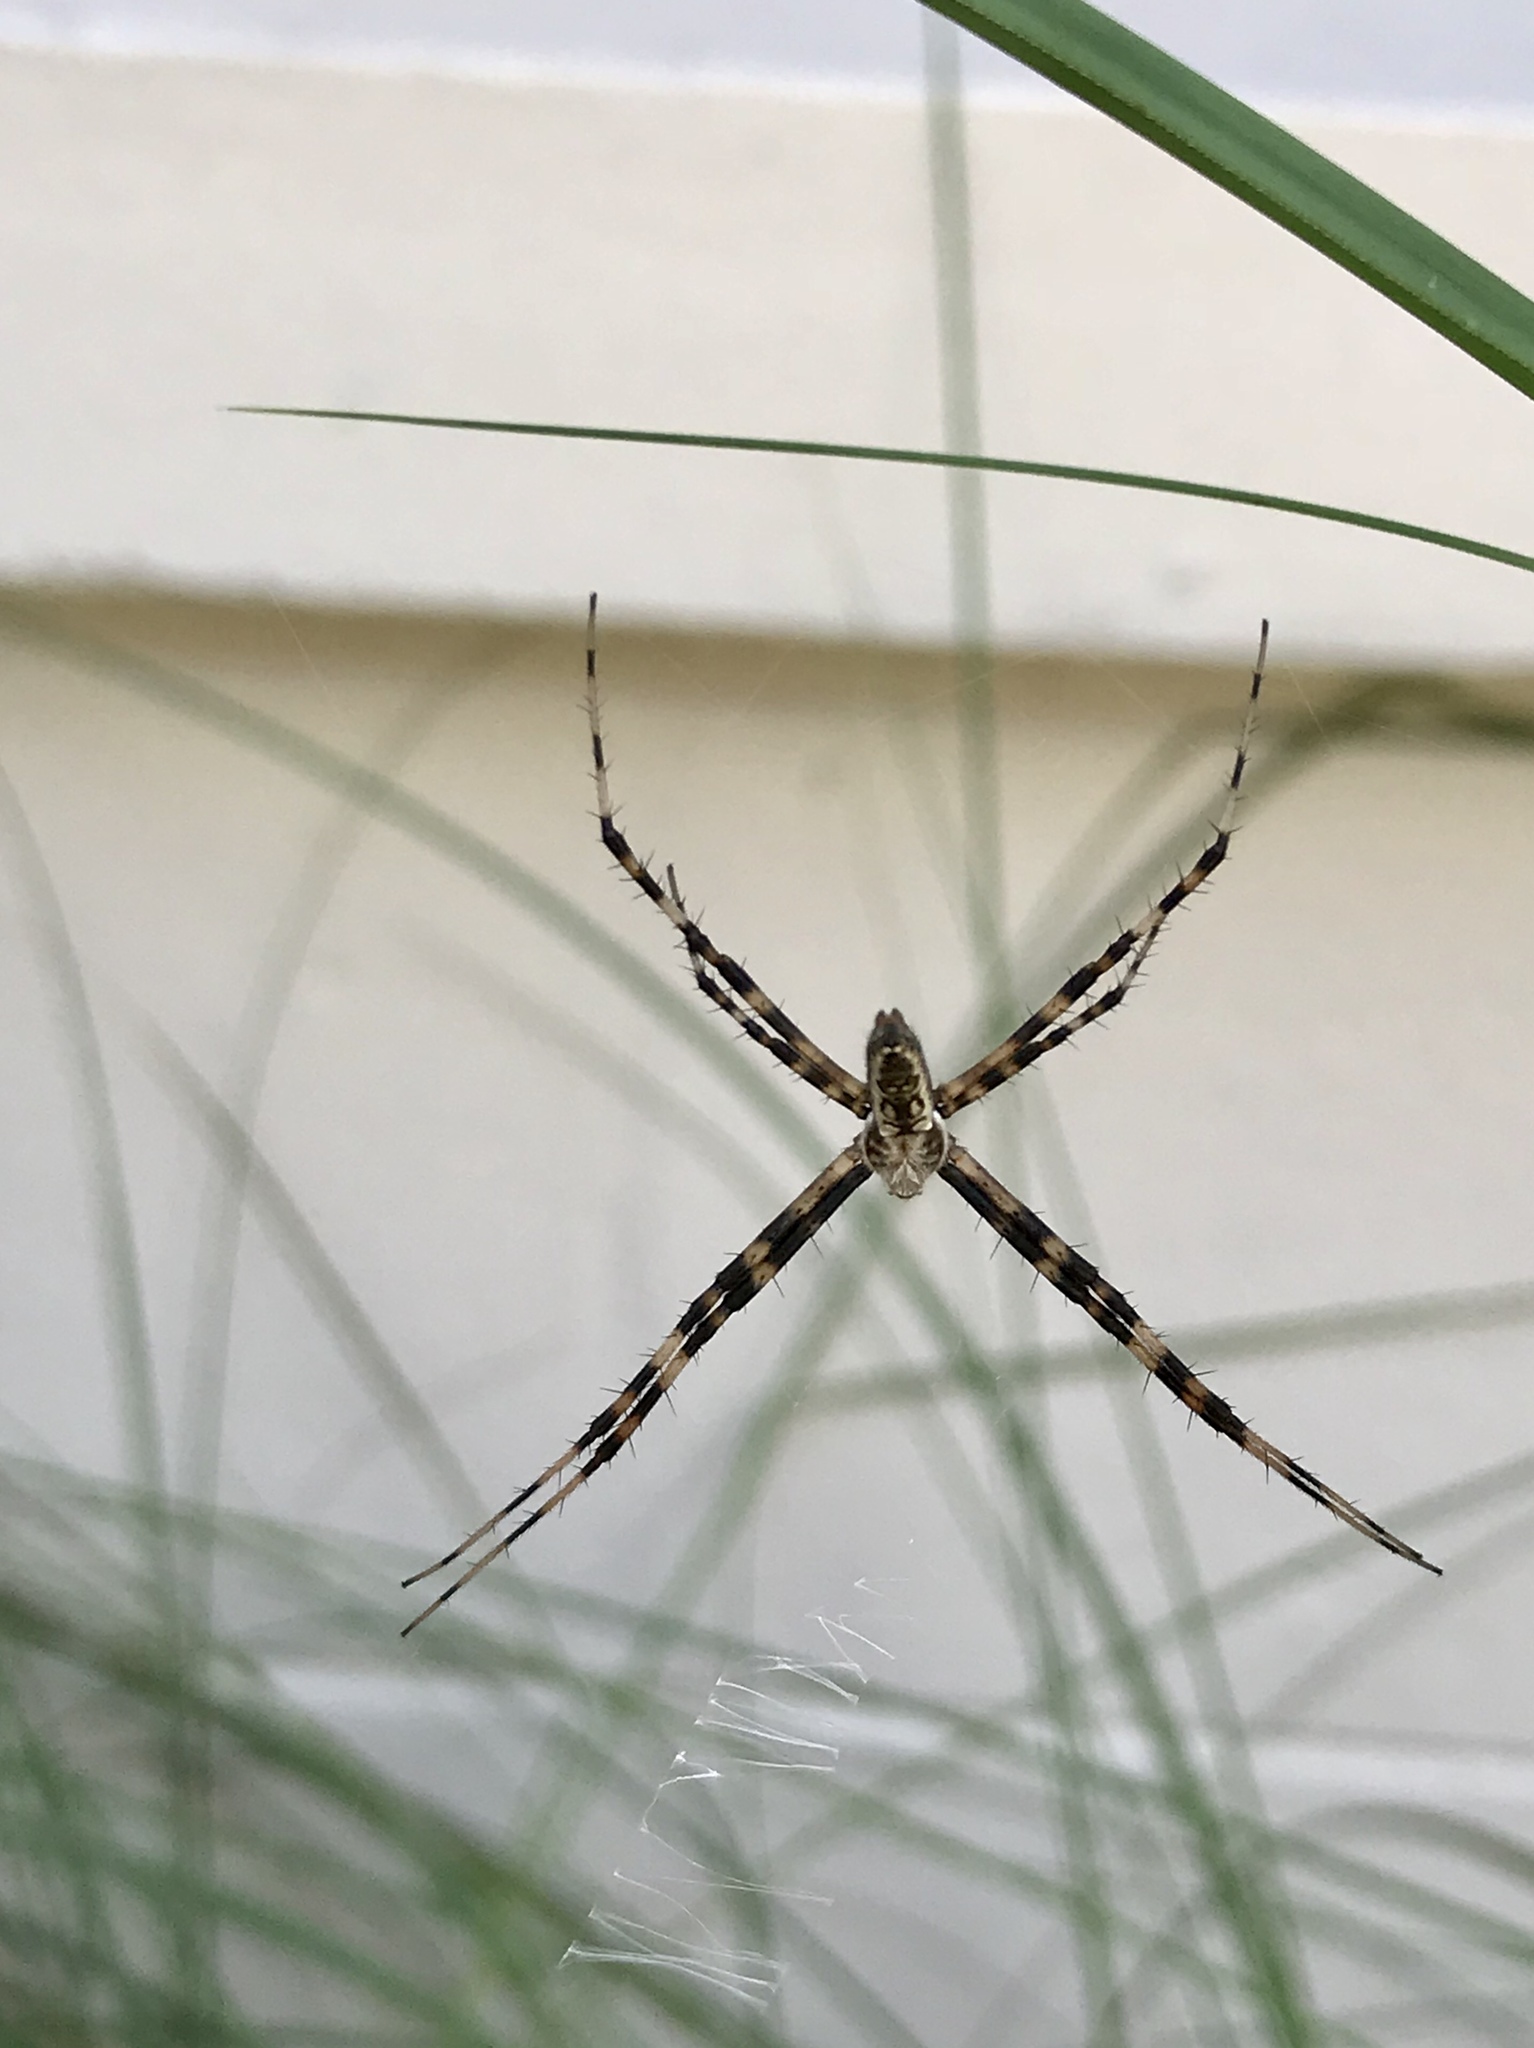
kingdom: Animalia
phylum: Arthropoda
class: Arachnida
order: Araneae
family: Araneidae
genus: Argiope
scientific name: Argiope aurantia
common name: Orb weavers
